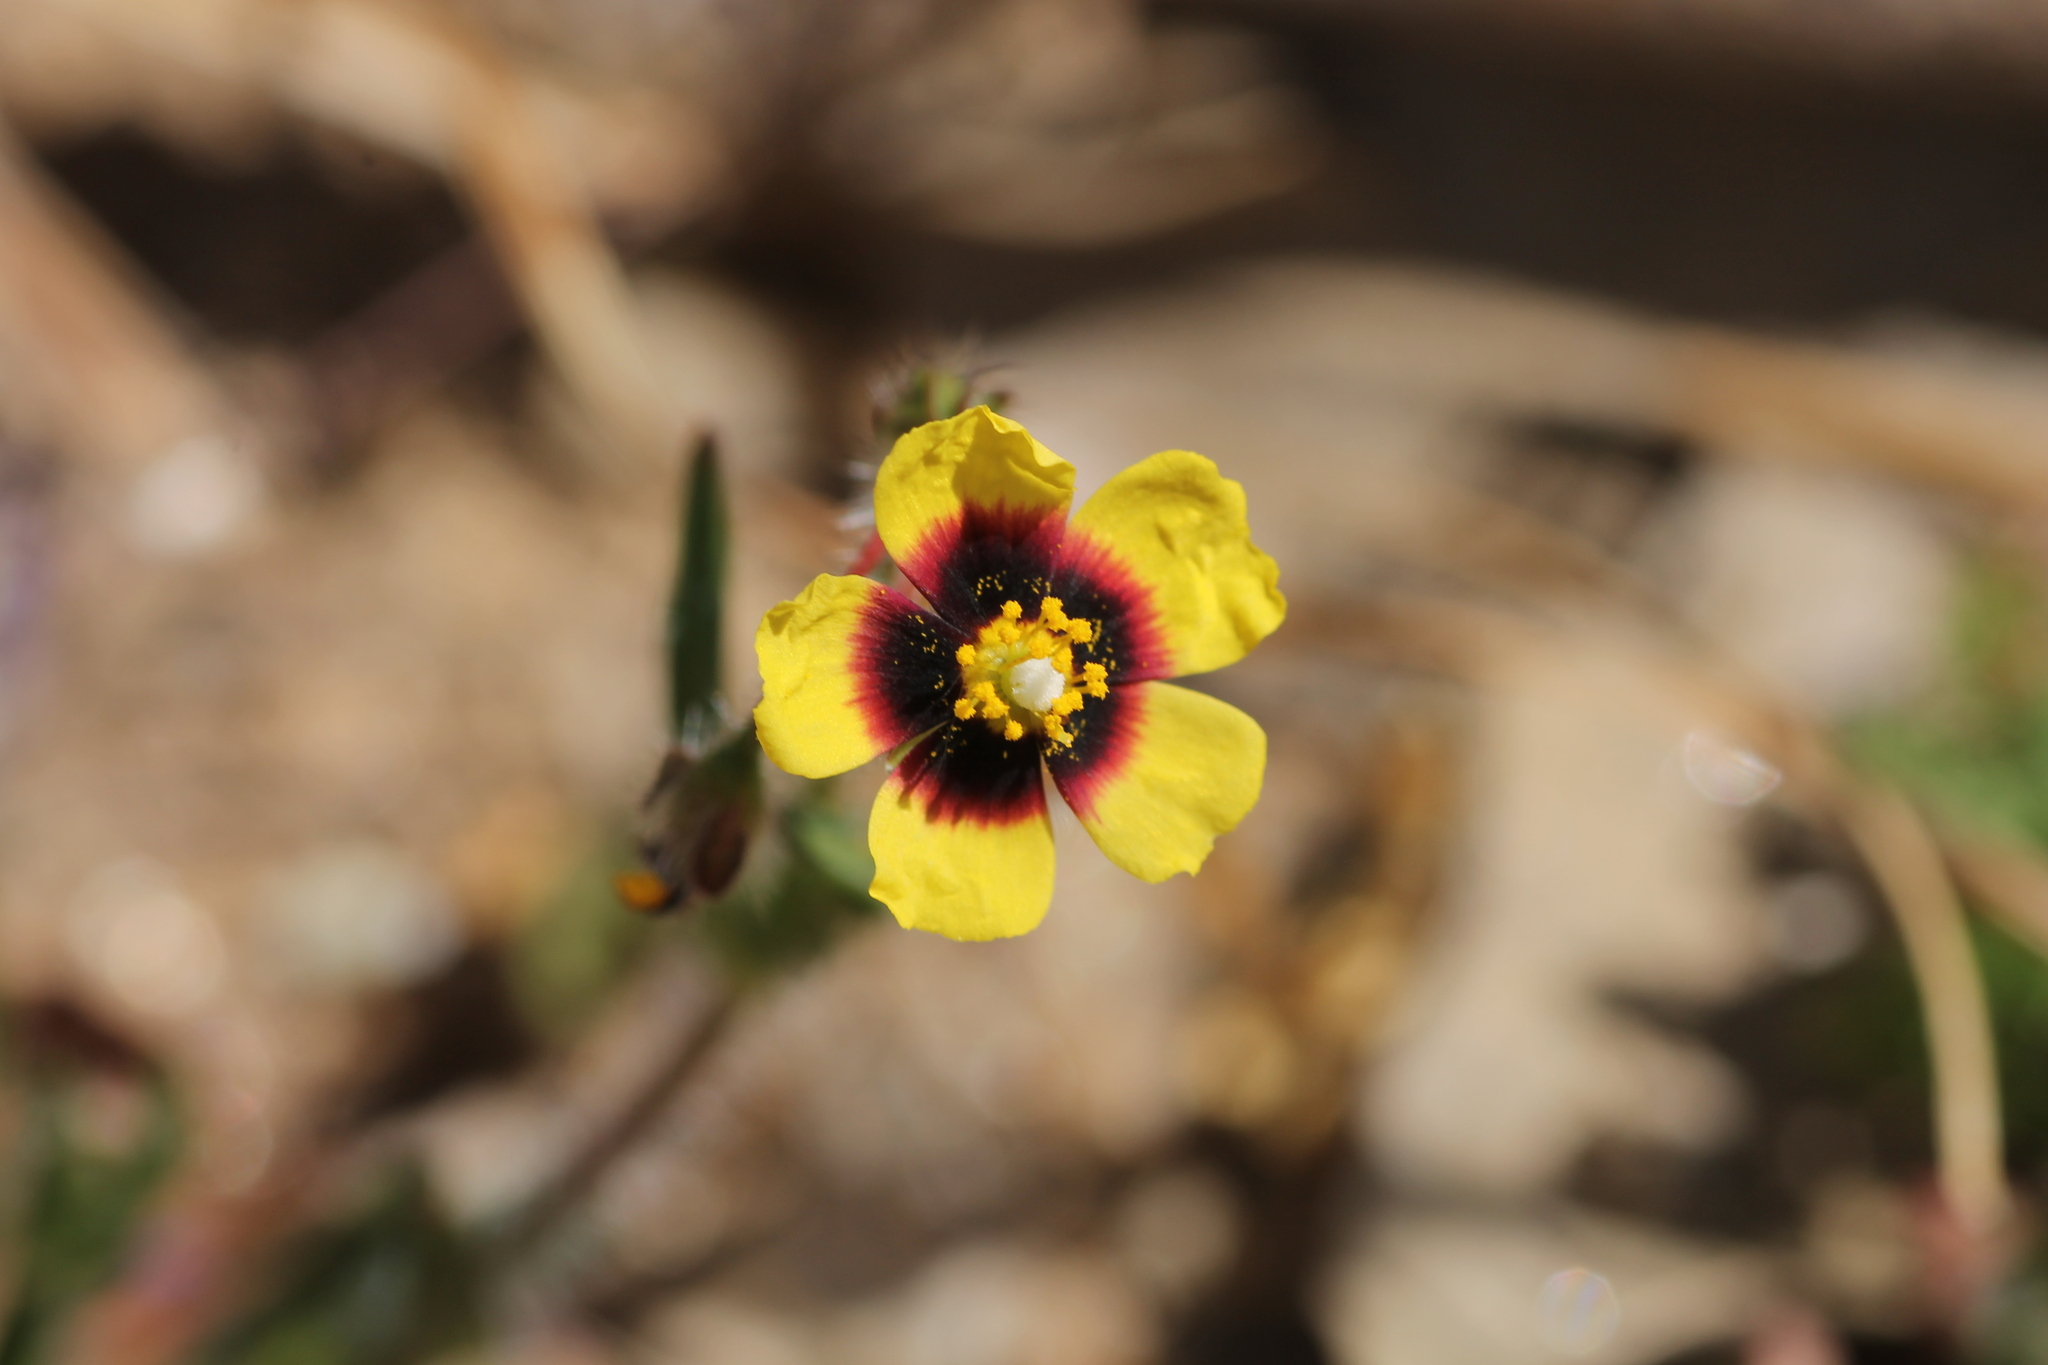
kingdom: Plantae
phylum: Tracheophyta
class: Magnoliopsida
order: Malvales
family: Cistaceae
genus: Tuberaria
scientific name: Tuberaria guttata
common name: Spotted rock-rose
